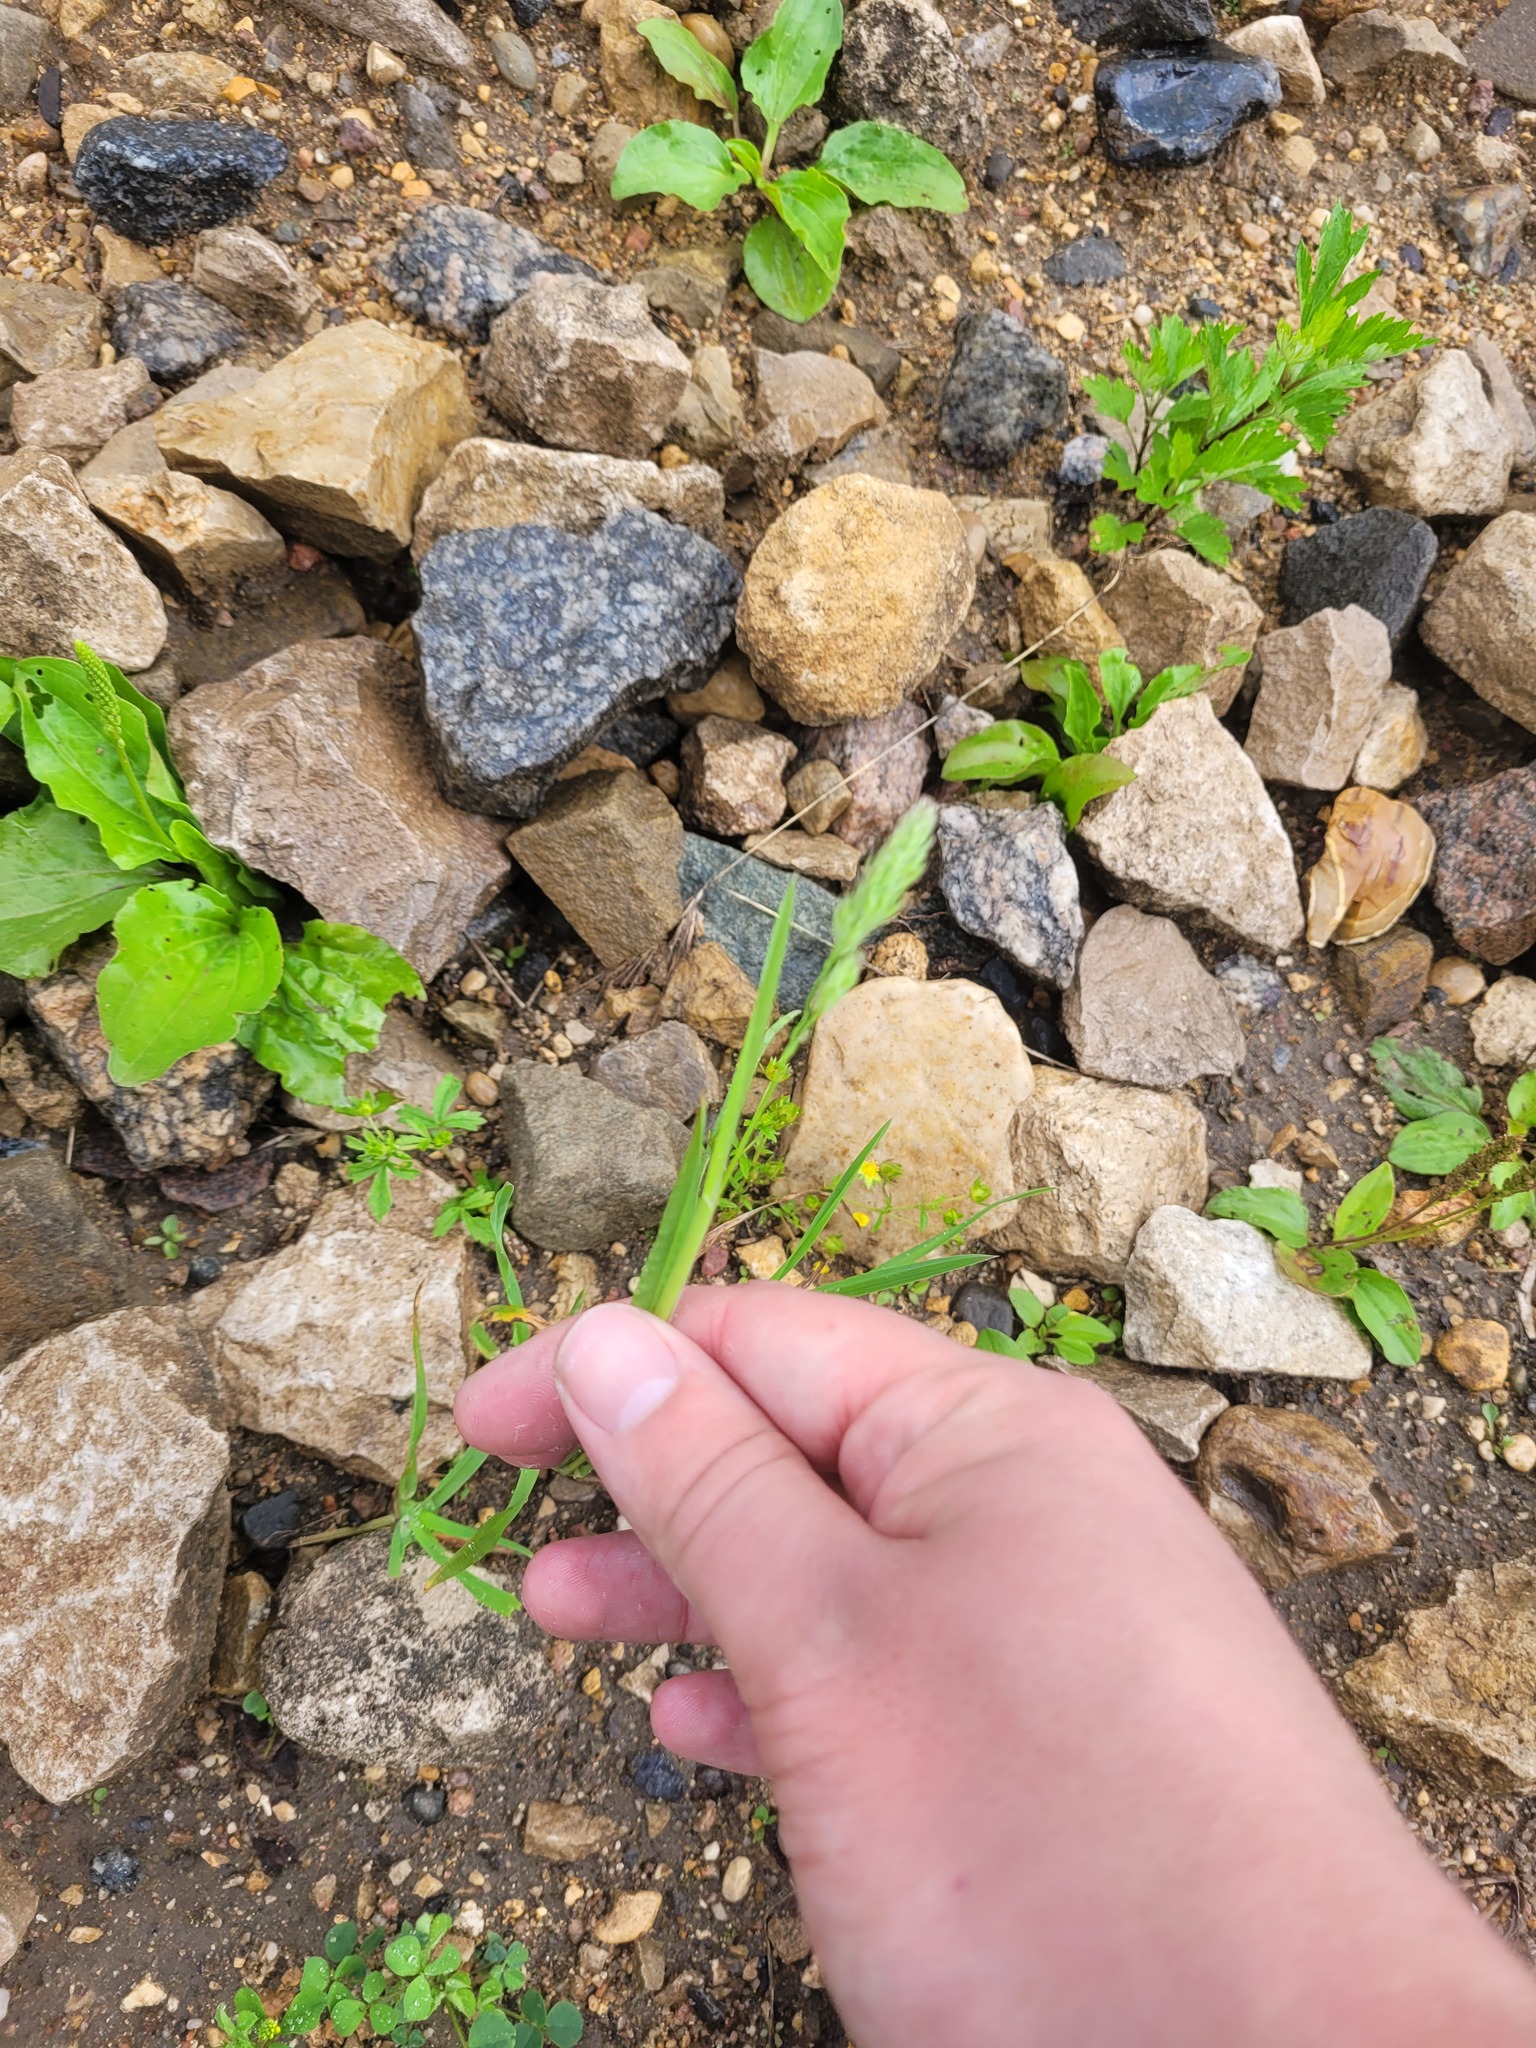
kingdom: Plantae
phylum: Tracheophyta
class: Liliopsida
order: Poales
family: Poaceae
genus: Dactylis
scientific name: Dactylis glomerata
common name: Orchardgrass
